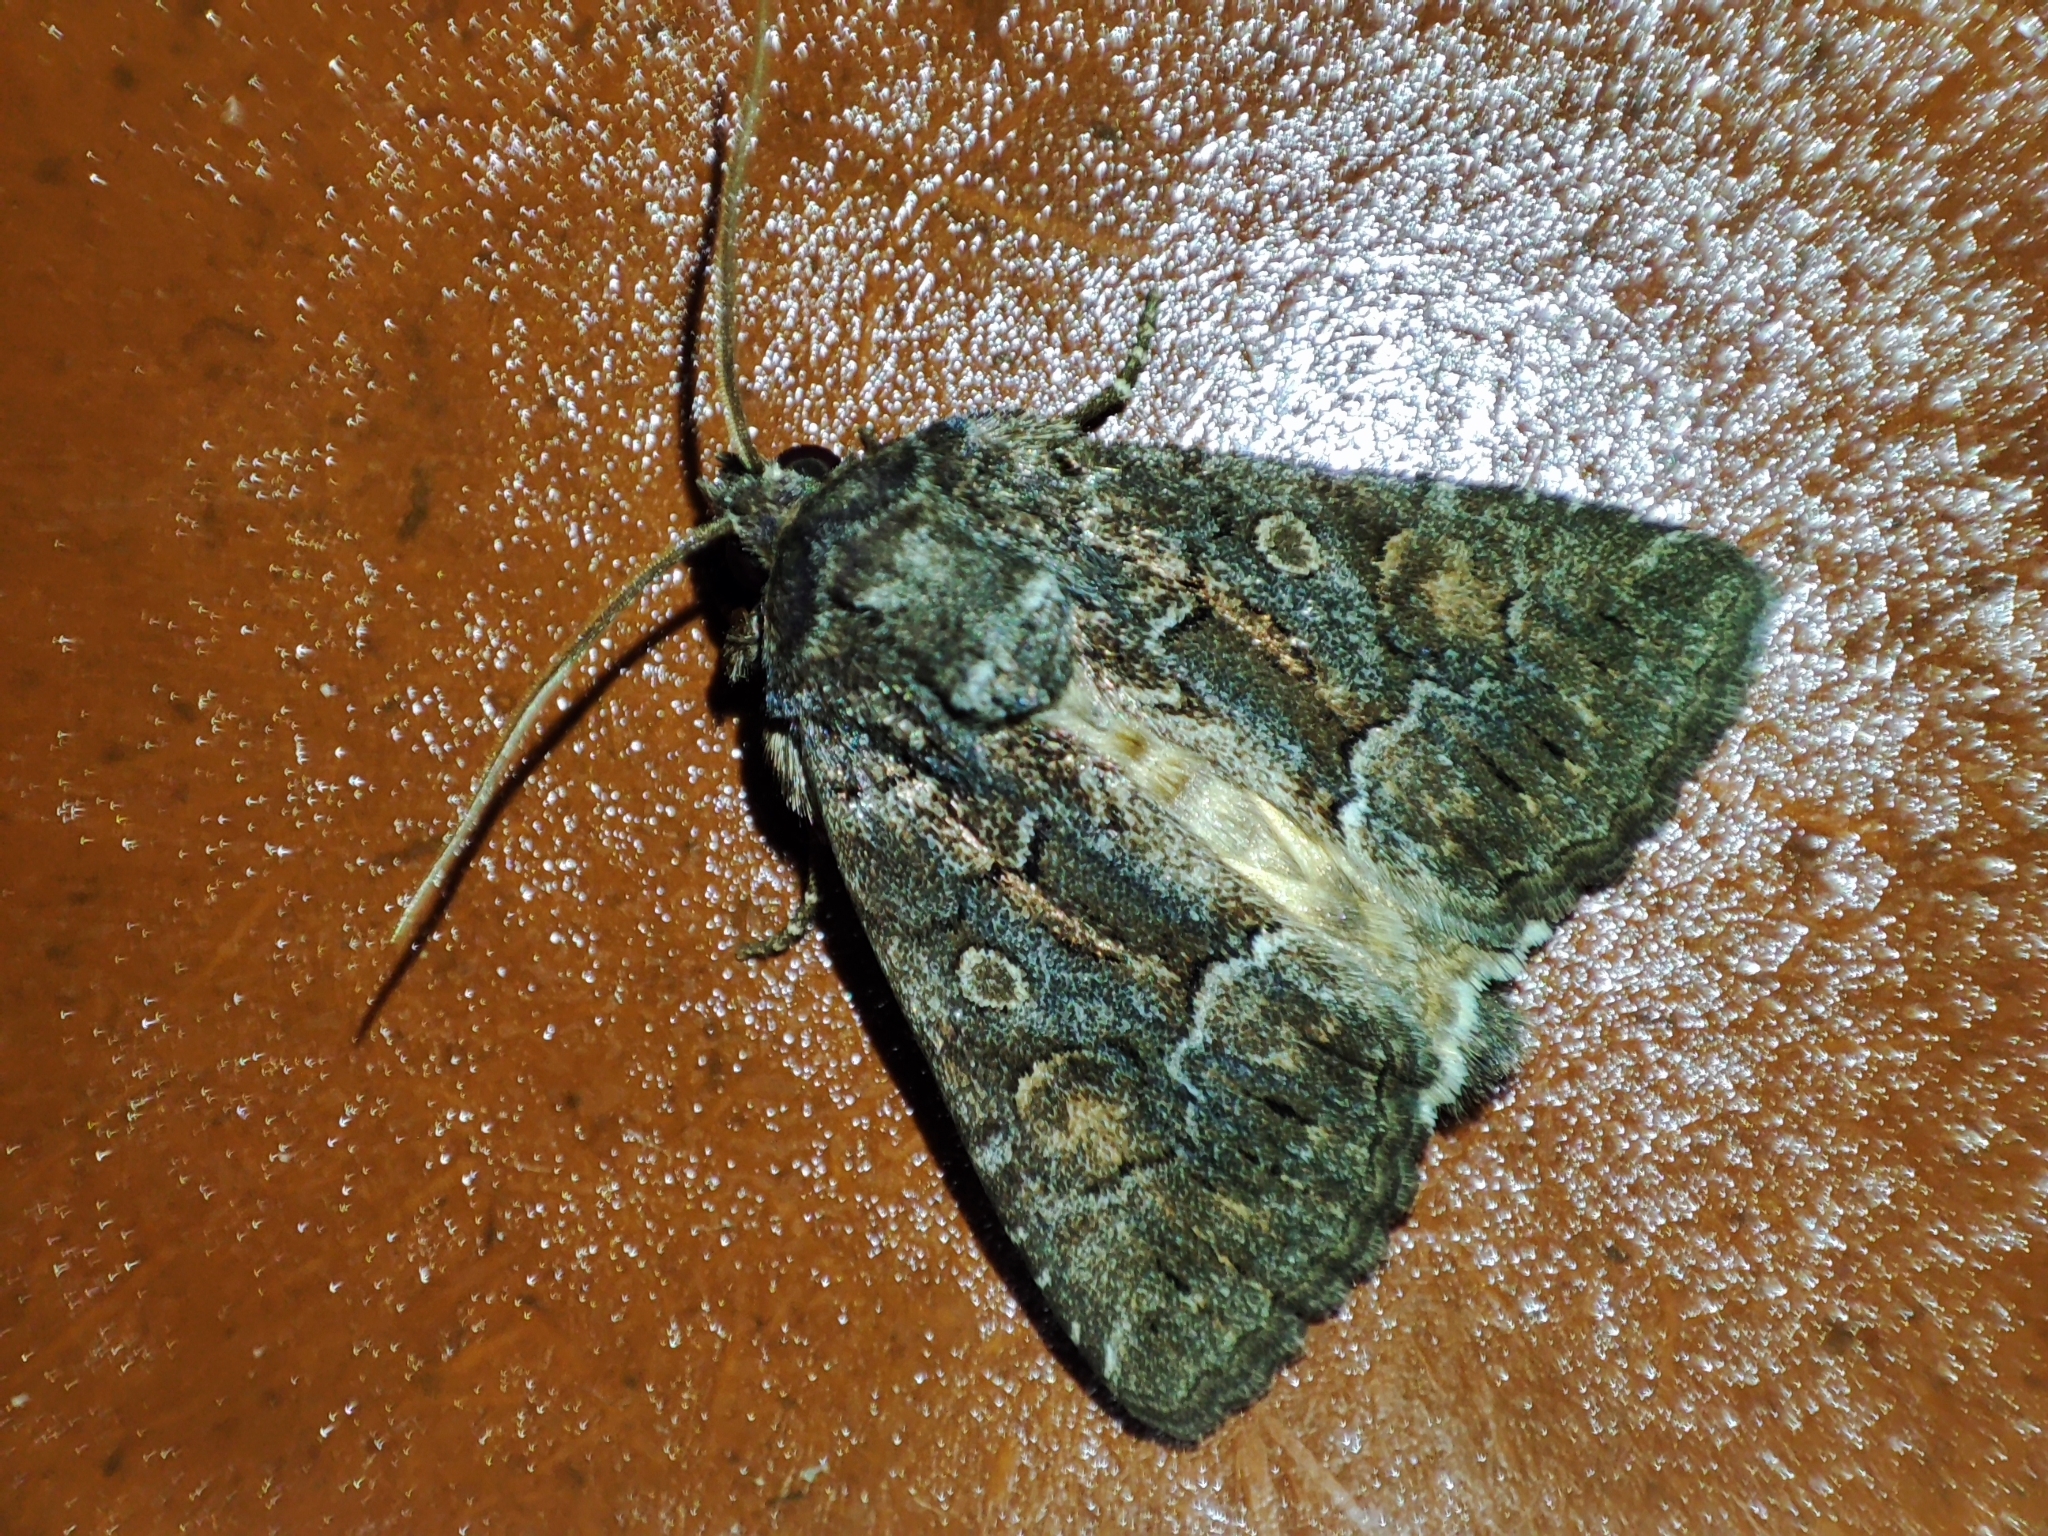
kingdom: Animalia
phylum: Arthropoda
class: Insecta
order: Lepidoptera
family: Noctuidae
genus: Thalpophila
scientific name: Thalpophila matura
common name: Straw underwing
